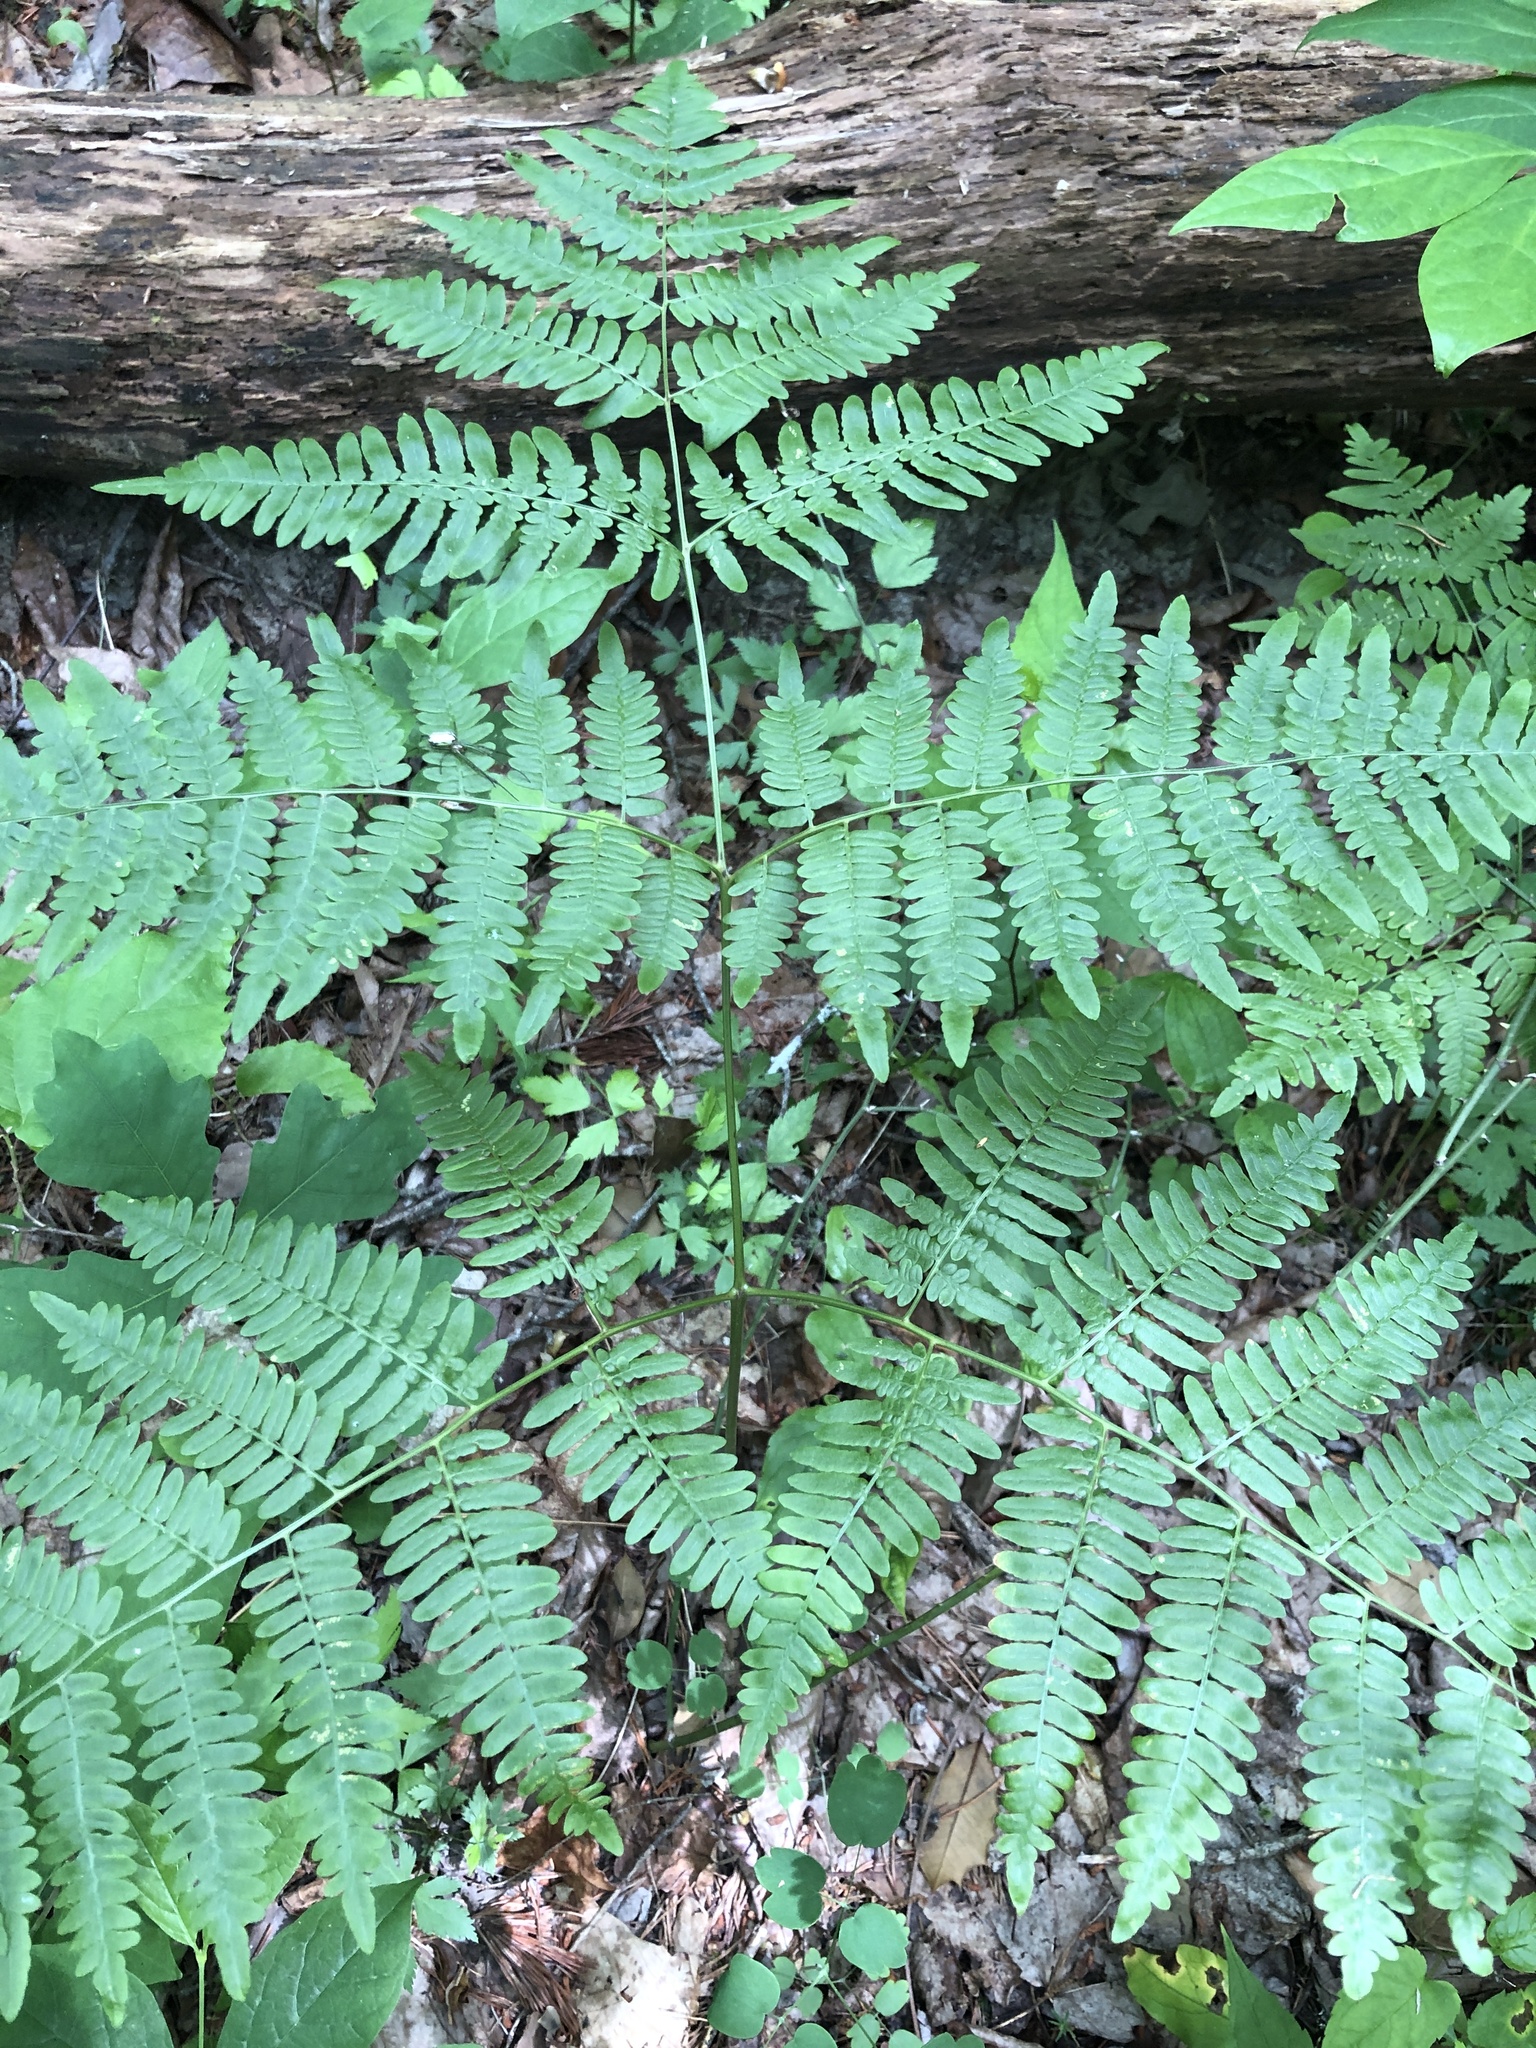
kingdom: Plantae
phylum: Tracheophyta
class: Polypodiopsida
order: Polypodiales
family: Dennstaedtiaceae
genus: Pteridium
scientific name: Pteridium aquilinum
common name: Bracken
